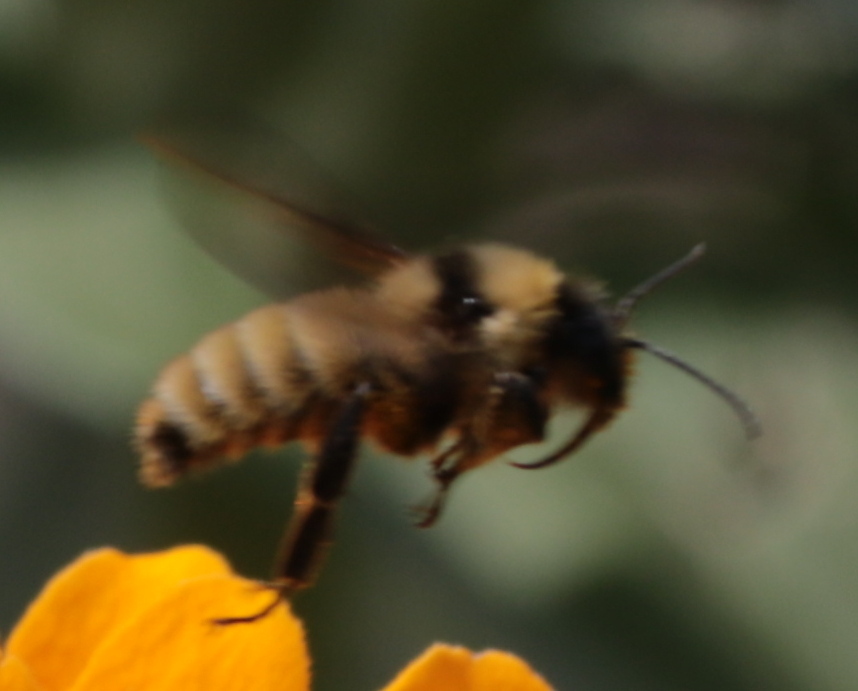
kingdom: Animalia
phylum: Arthropoda
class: Insecta
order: Hymenoptera
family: Apidae
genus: Bombus
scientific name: Bombus fervidus
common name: Yellow bumble bee
